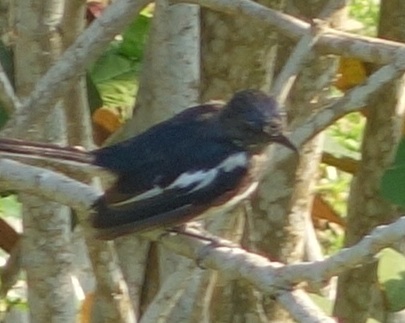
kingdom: Animalia
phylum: Chordata
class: Aves
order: Passeriformes
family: Muscicapidae
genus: Copsychus
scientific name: Copsychus saularis
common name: Oriental magpie-robin
